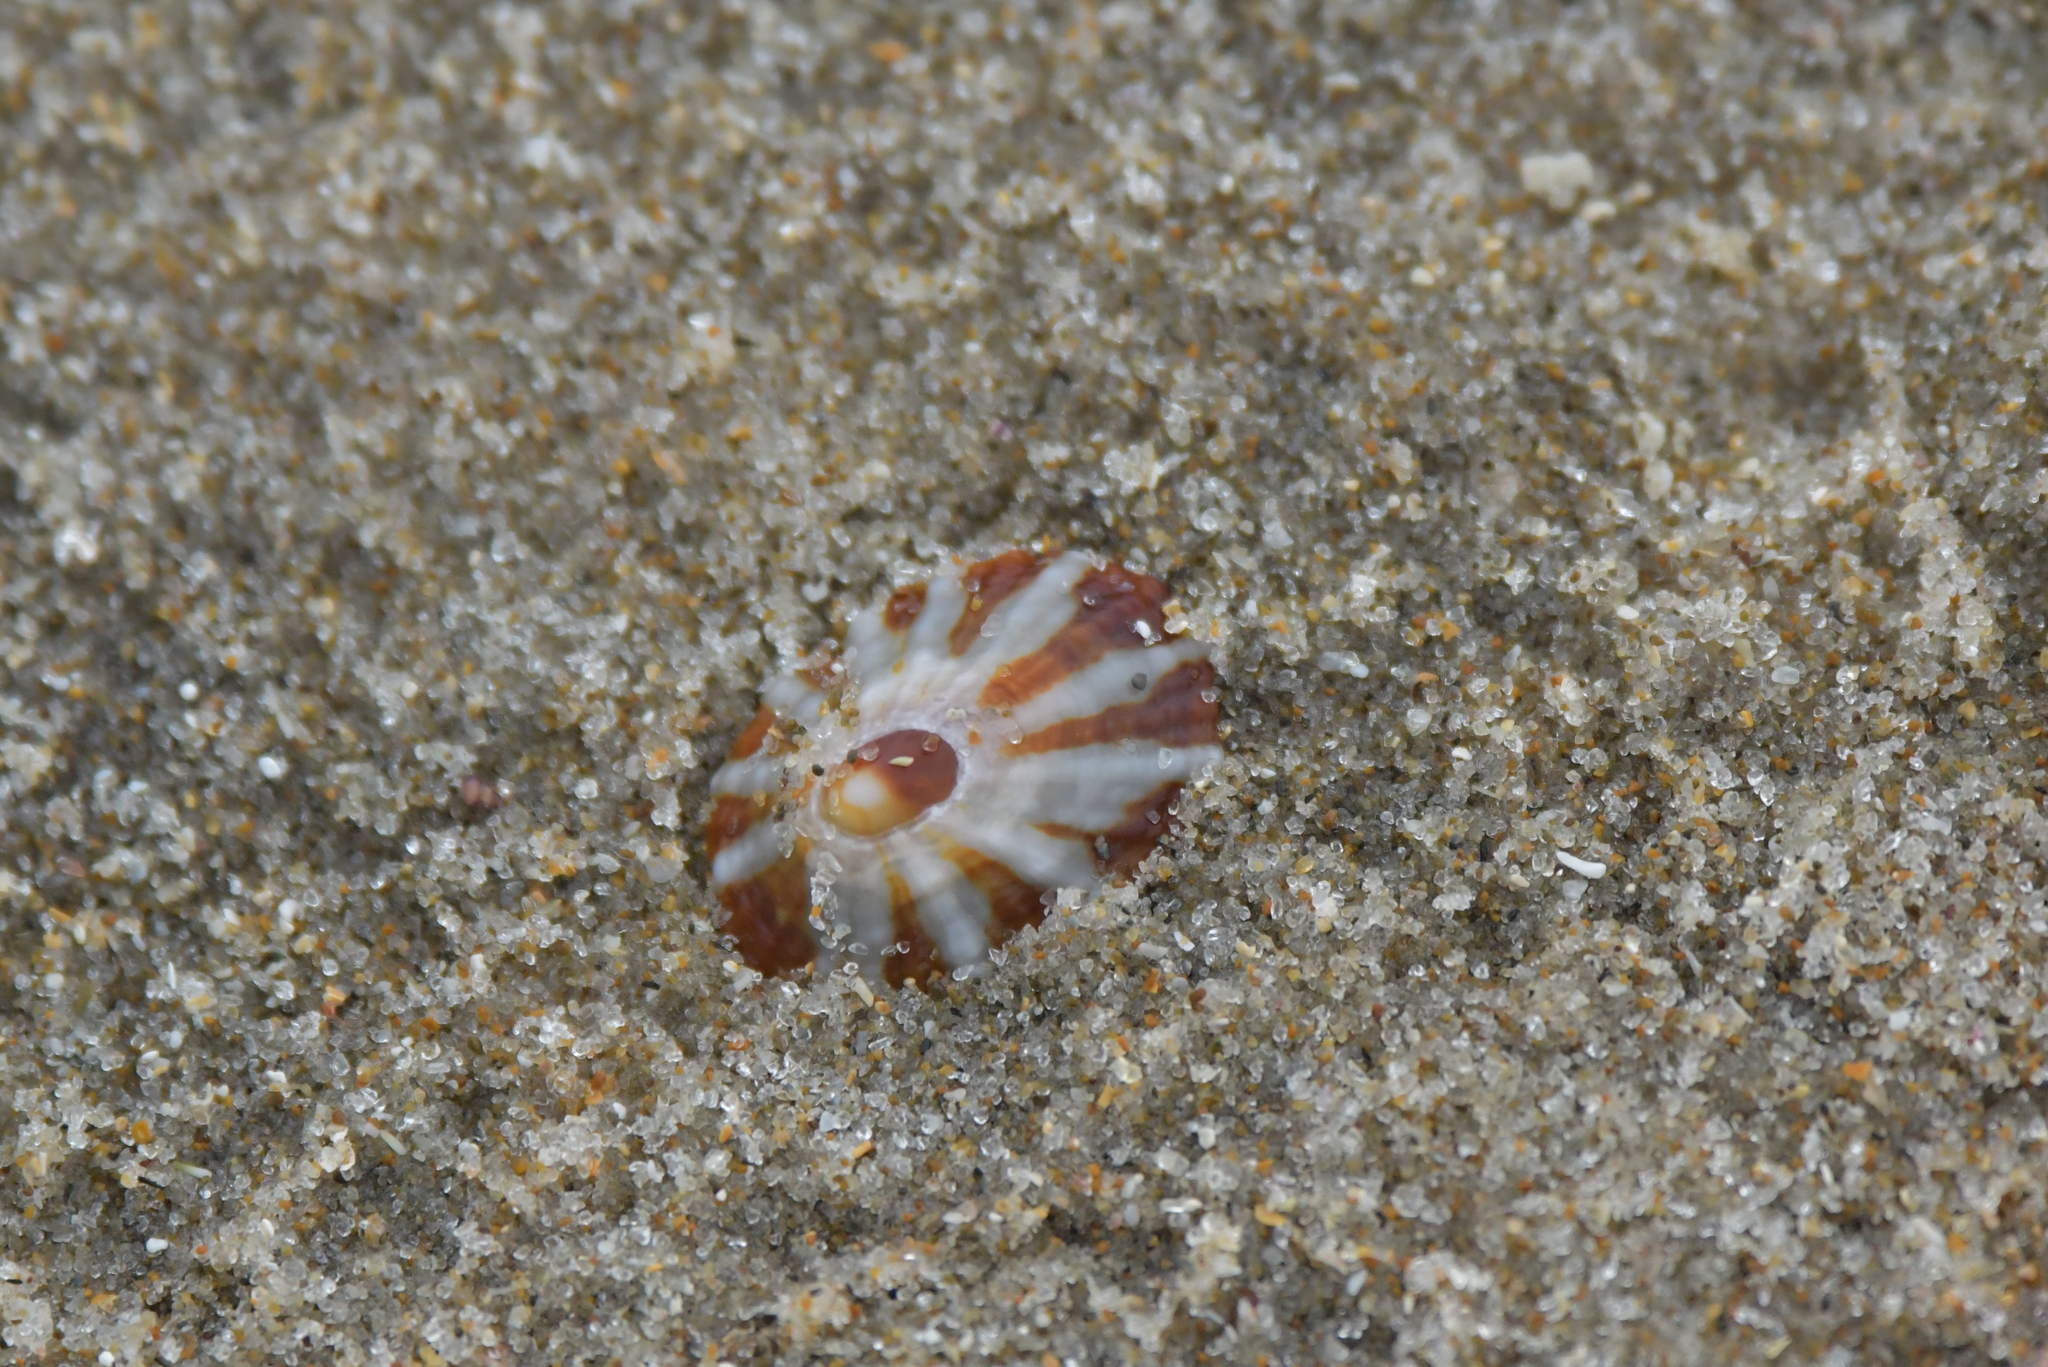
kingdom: Animalia
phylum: Mollusca
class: Gastropoda
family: Nacellidae
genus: Cellana
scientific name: Cellana stellifera
